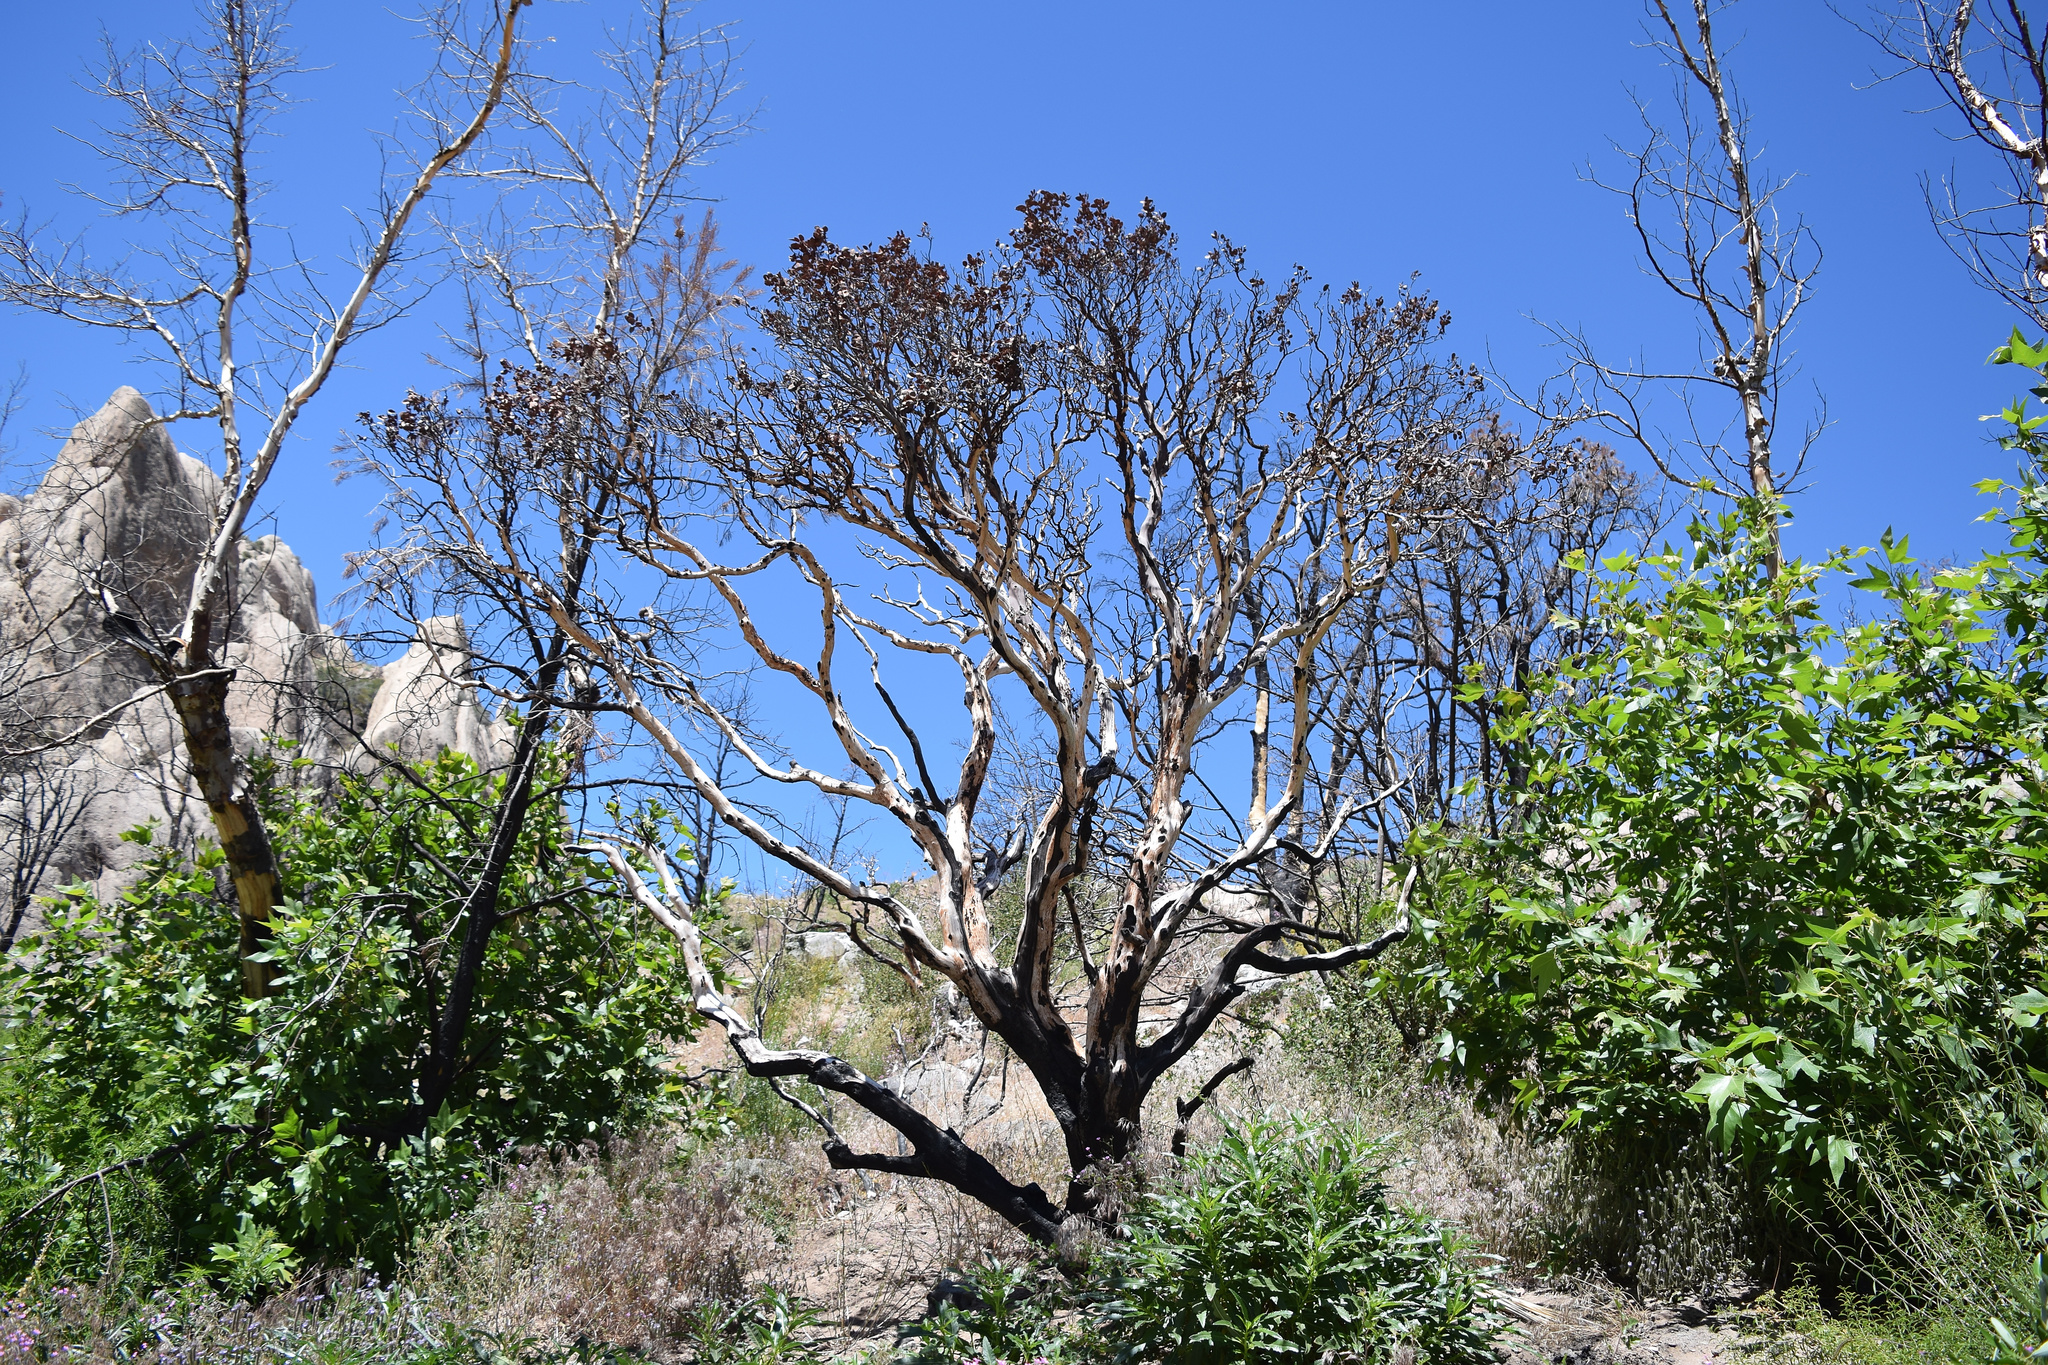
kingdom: Plantae
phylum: Tracheophyta
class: Magnoliopsida
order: Ericales
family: Ericaceae
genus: Arctostaphylos
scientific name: Arctostaphylos glauca
